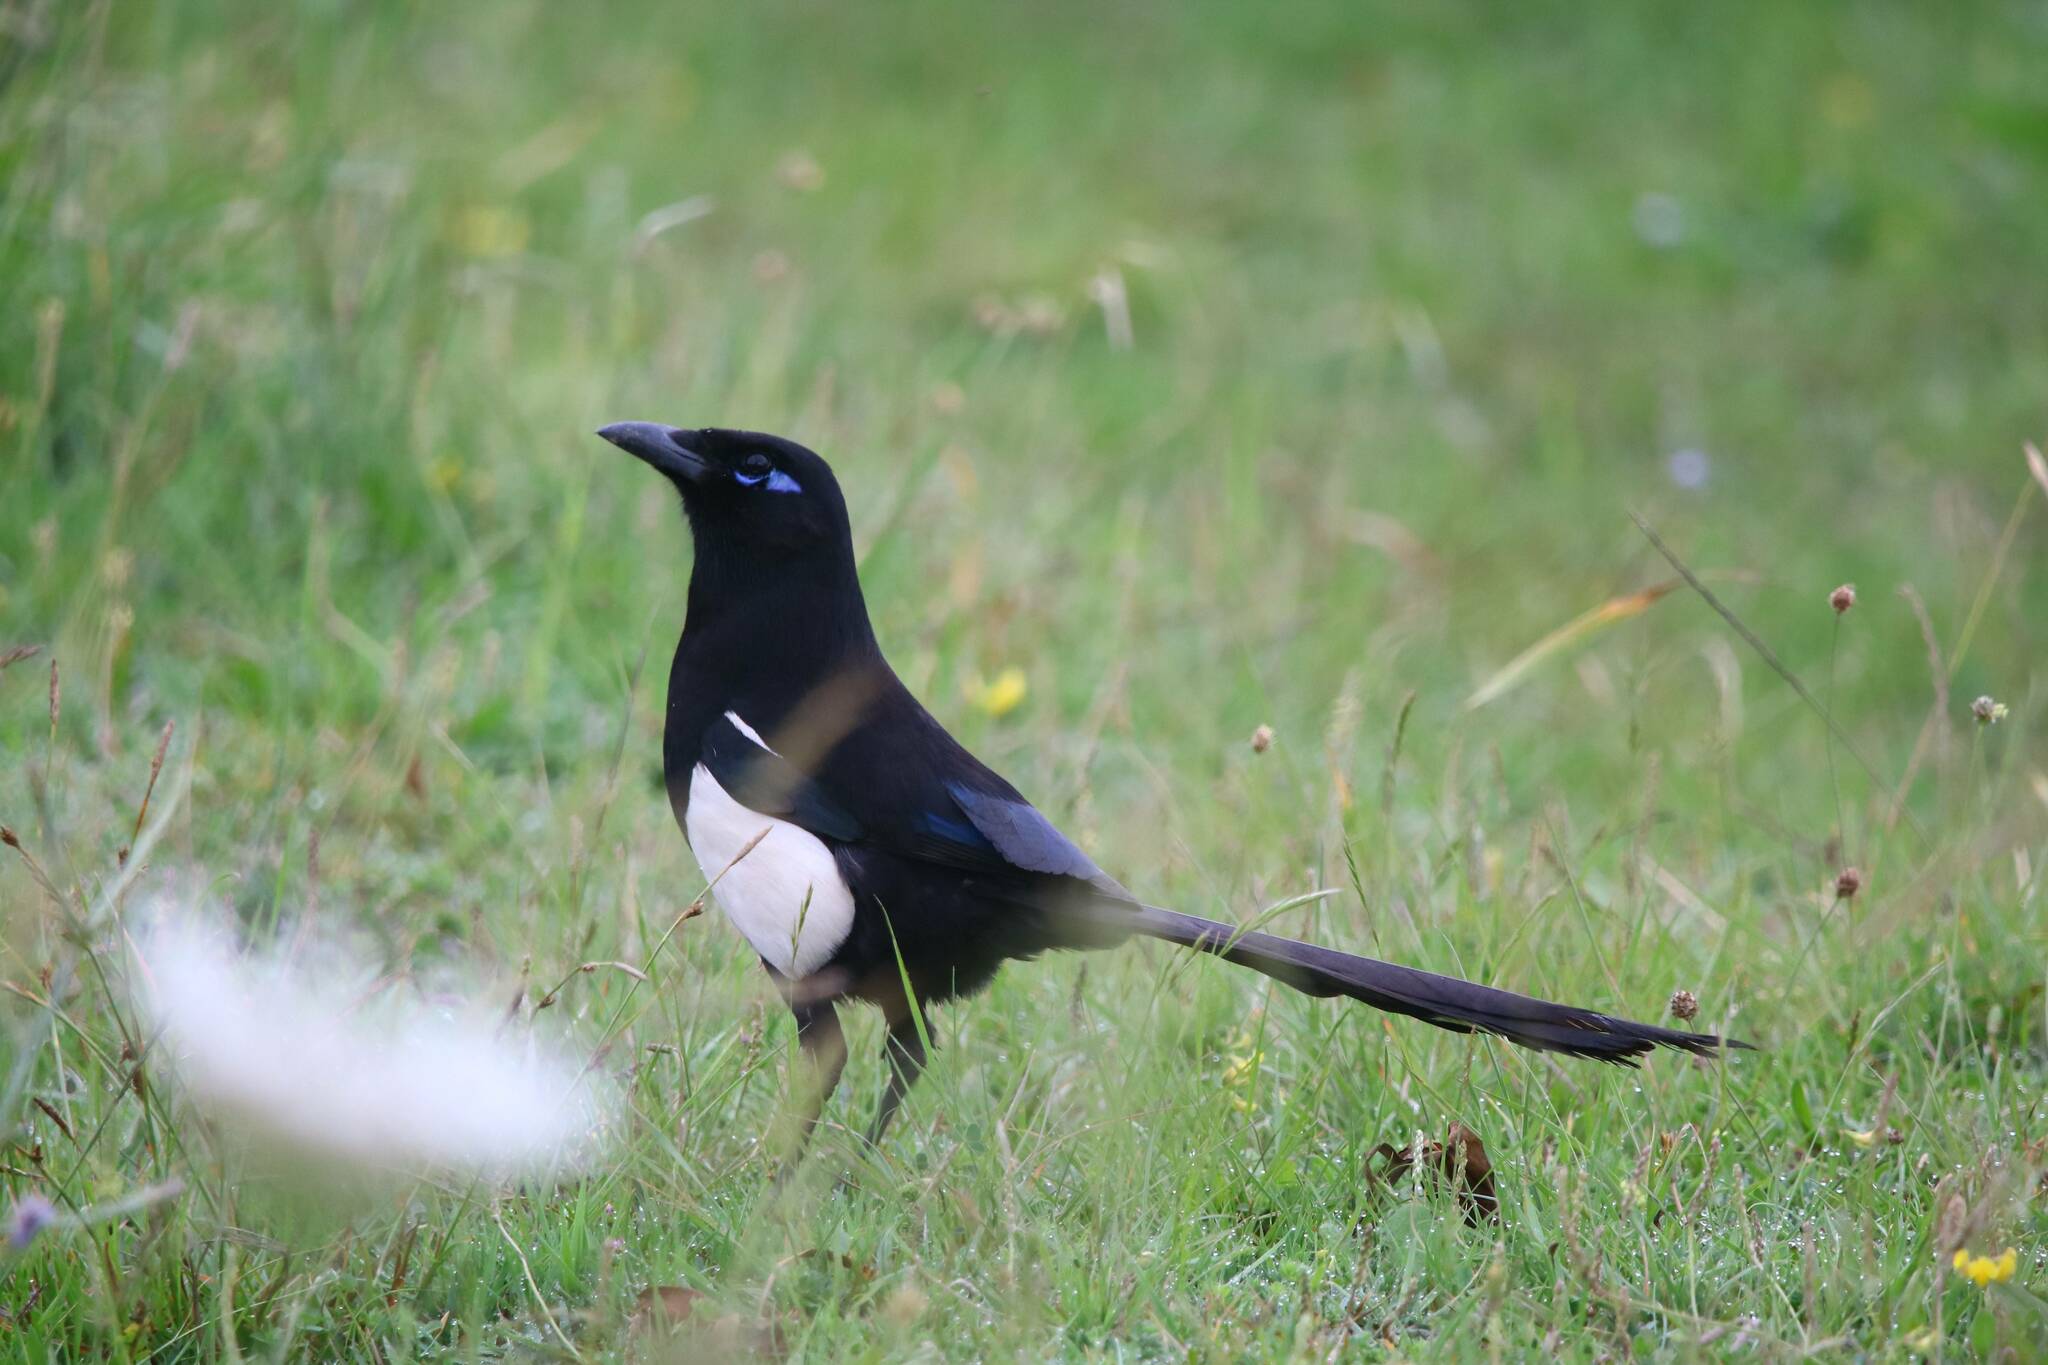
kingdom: Animalia
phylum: Chordata
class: Aves
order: Passeriformes
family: Corvidae
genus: Pica
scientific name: Pica mauritanica
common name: Maghreb magpie
